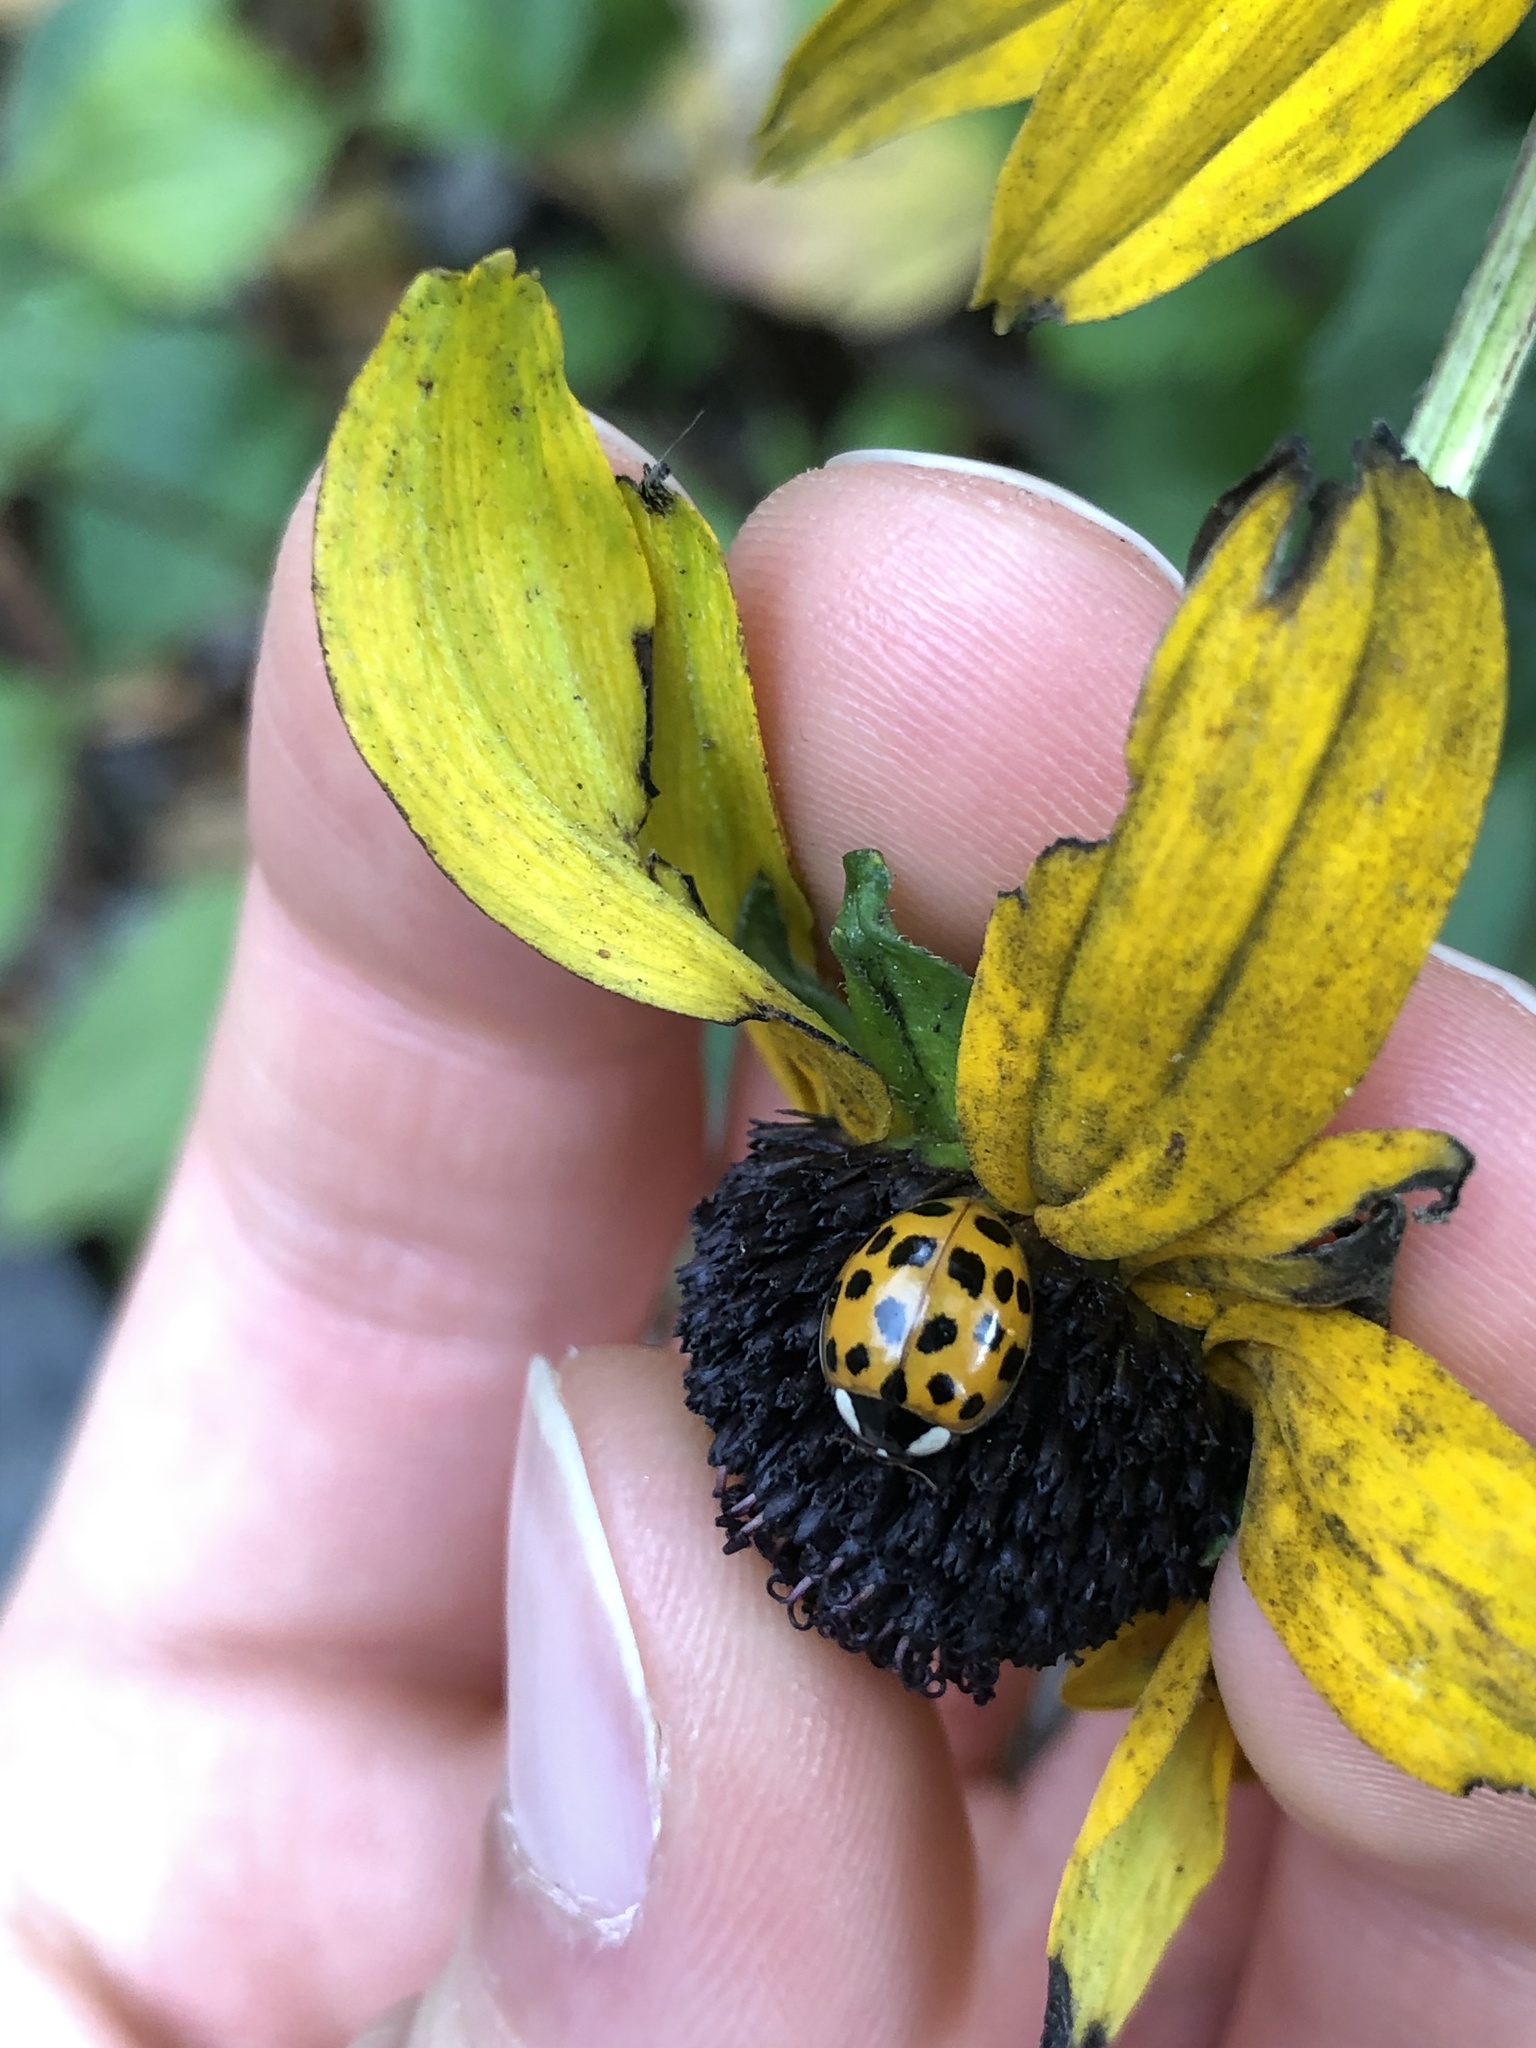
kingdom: Animalia
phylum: Arthropoda
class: Insecta
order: Coleoptera
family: Coccinellidae
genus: Harmonia
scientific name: Harmonia axyridis
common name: Harlequin ladybird
